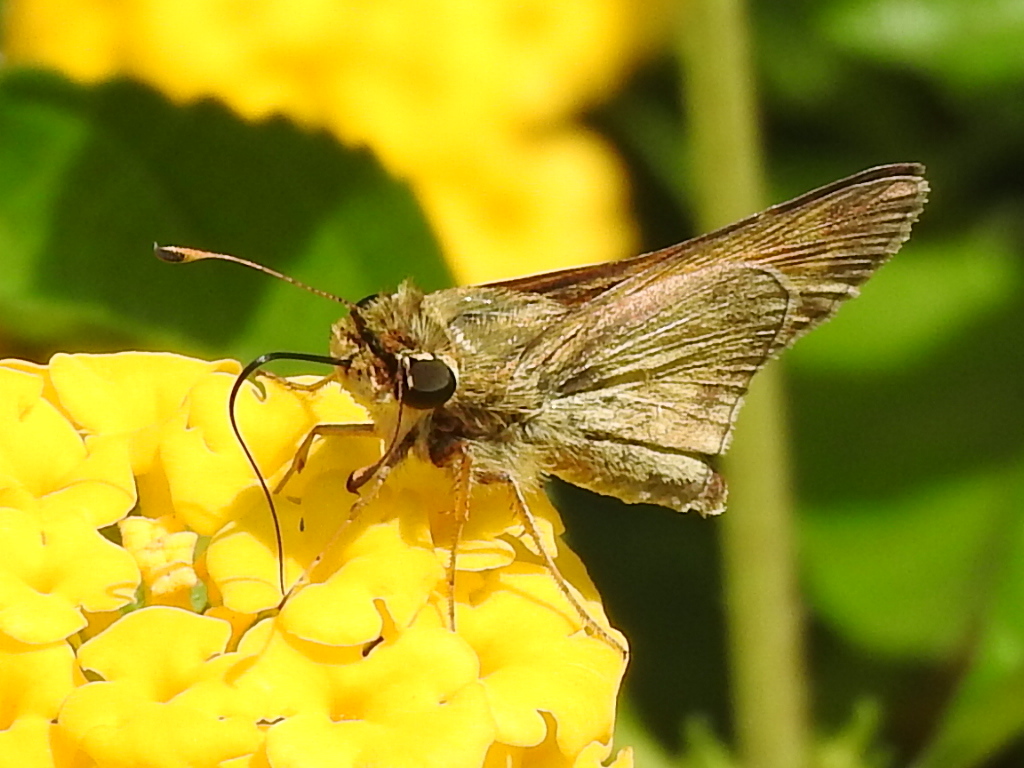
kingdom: Animalia
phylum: Arthropoda
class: Insecta
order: Lepidoptera
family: Hesperiidae
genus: Atalopedes
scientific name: Atalopedes
